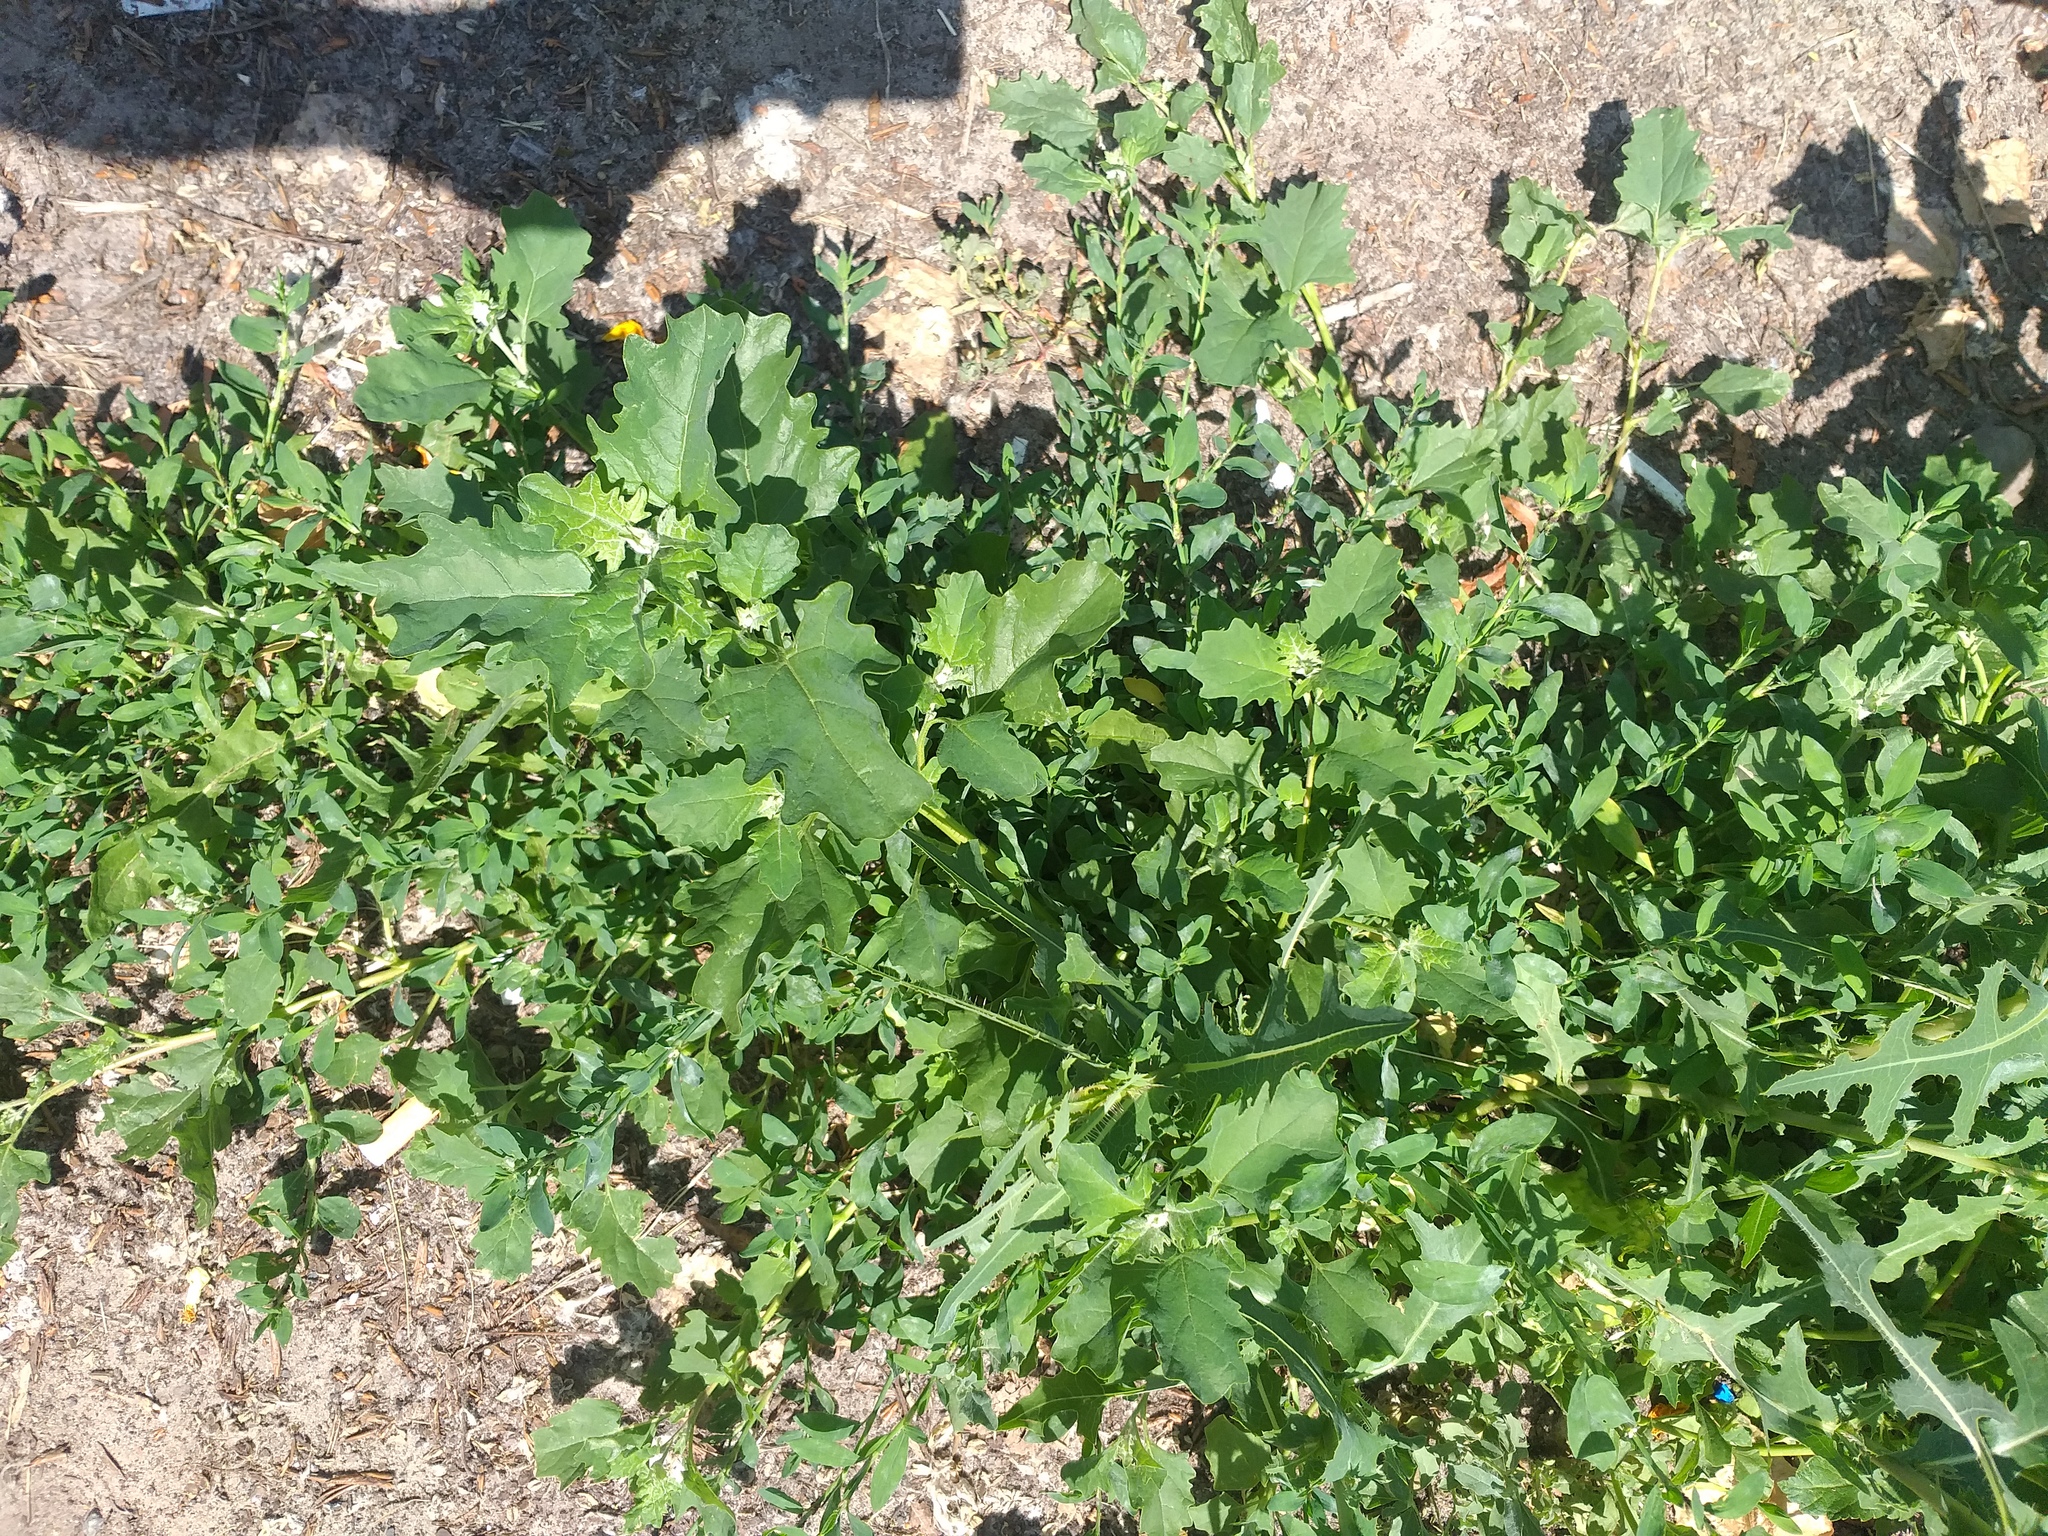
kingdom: Plantae
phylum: Tracheophyta
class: Magnoliopsida
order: Caryophyllales
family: Amaranthaceae
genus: Atriplex
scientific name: Atriplex tatarica
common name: Tatarian orache
